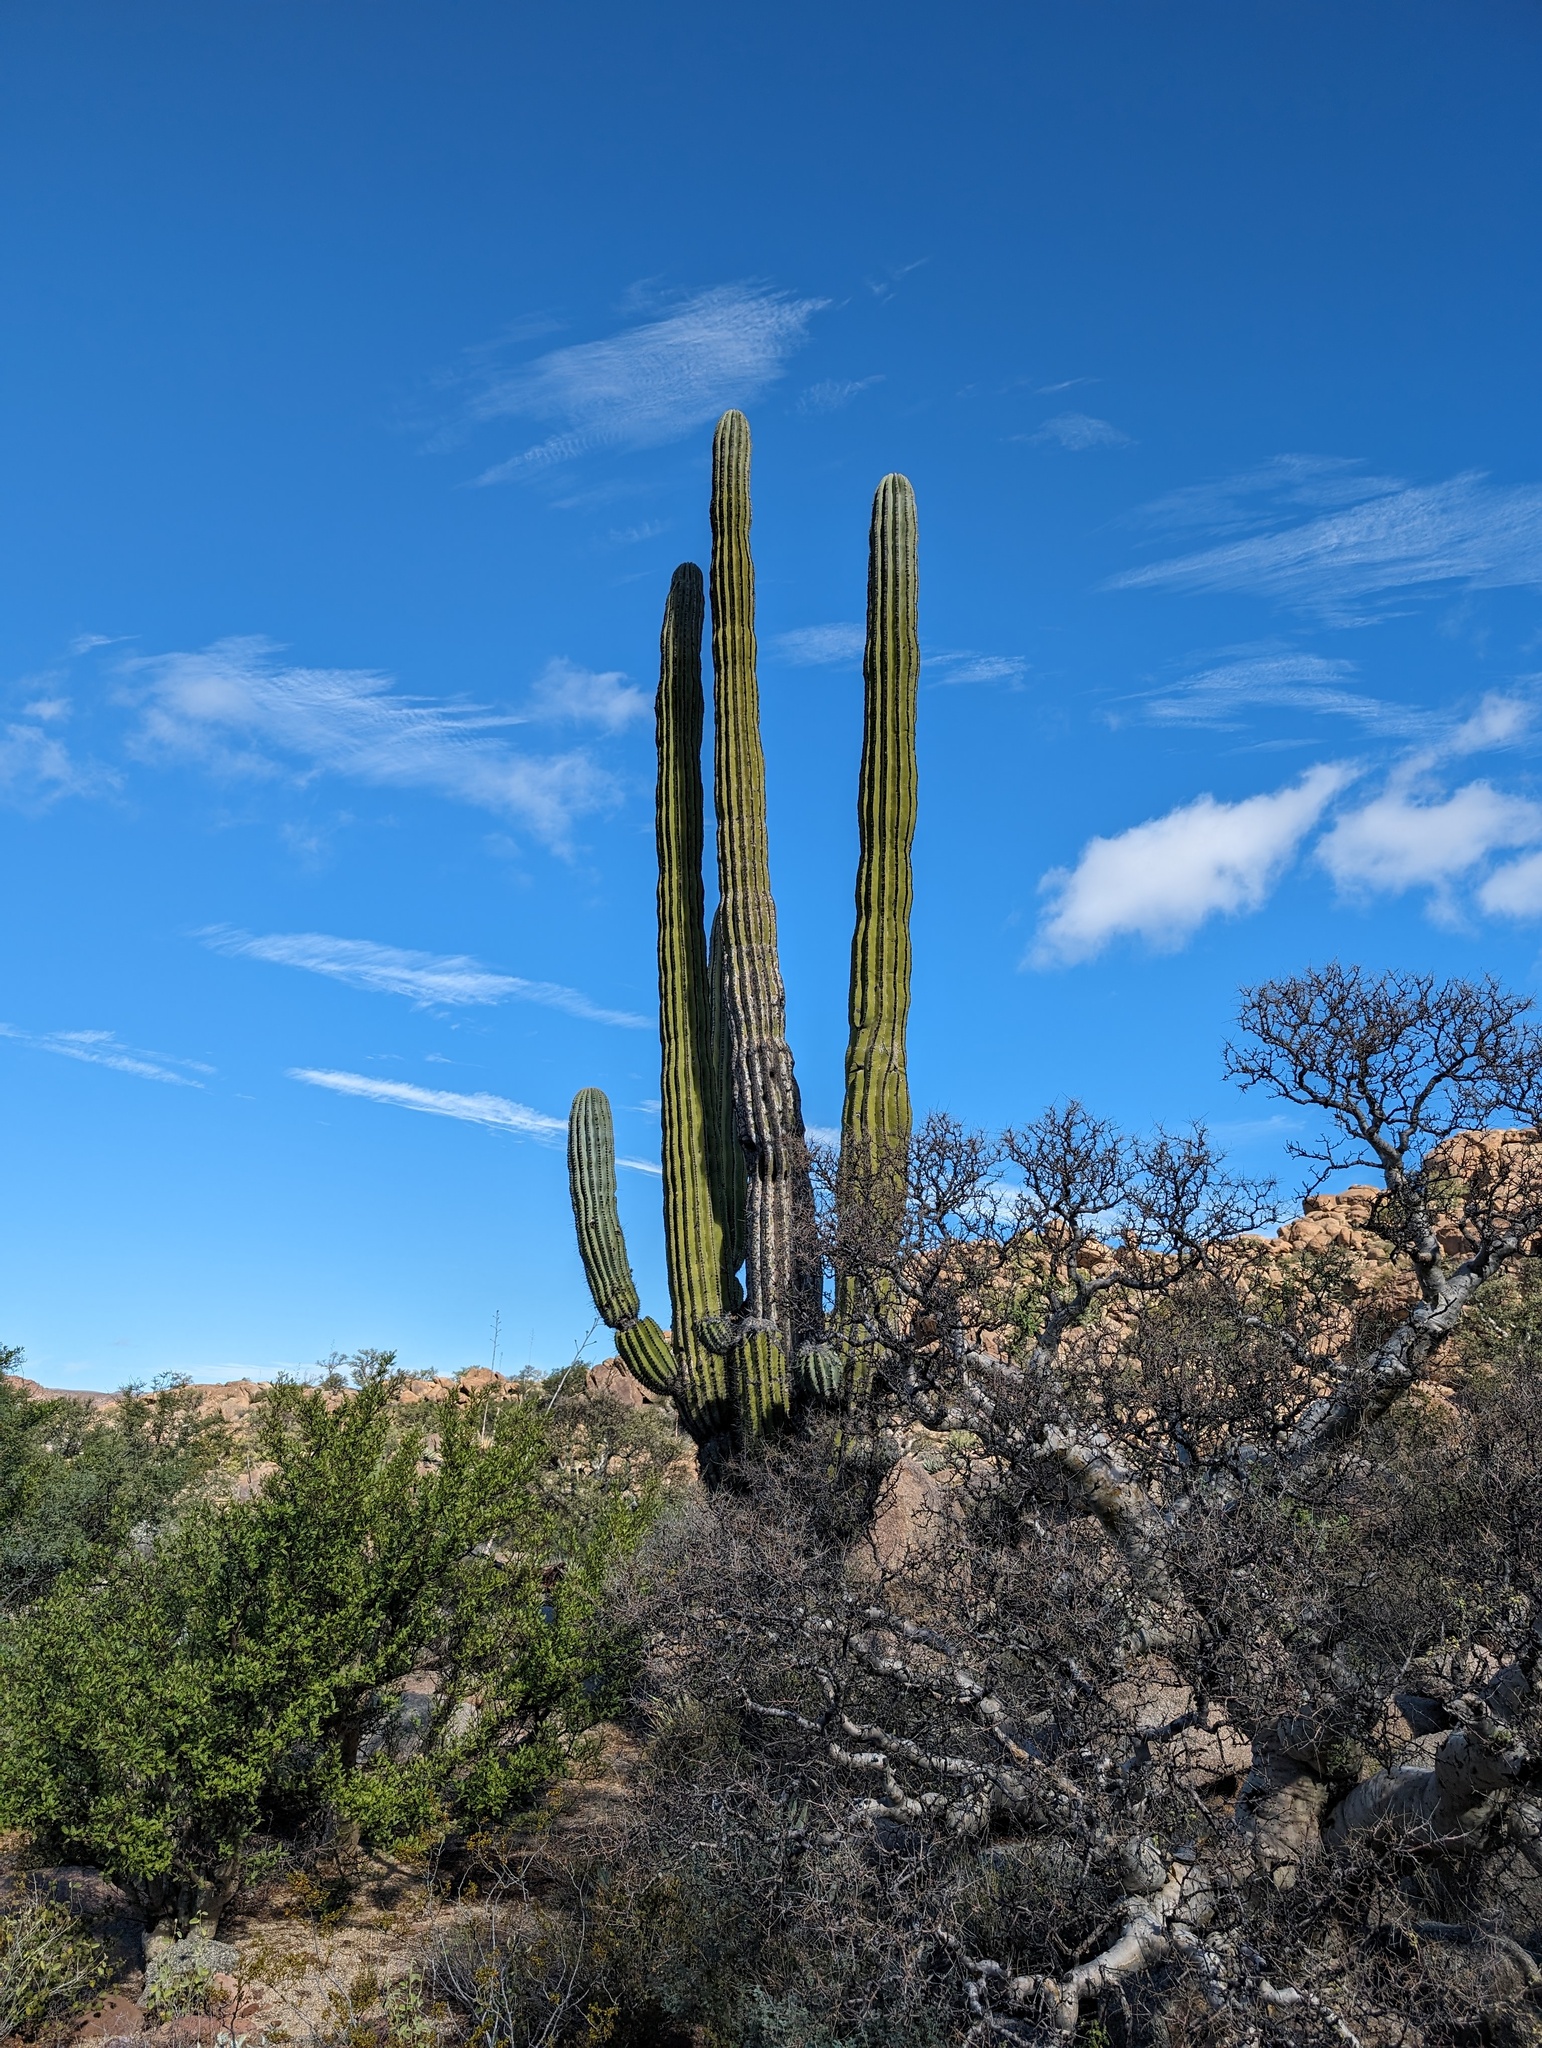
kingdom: Plantae
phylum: Tracheophyta
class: Magnoliopsida
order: Caryophyllales
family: Cactaceae
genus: Pachycereus
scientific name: Pachycereus pringlei
